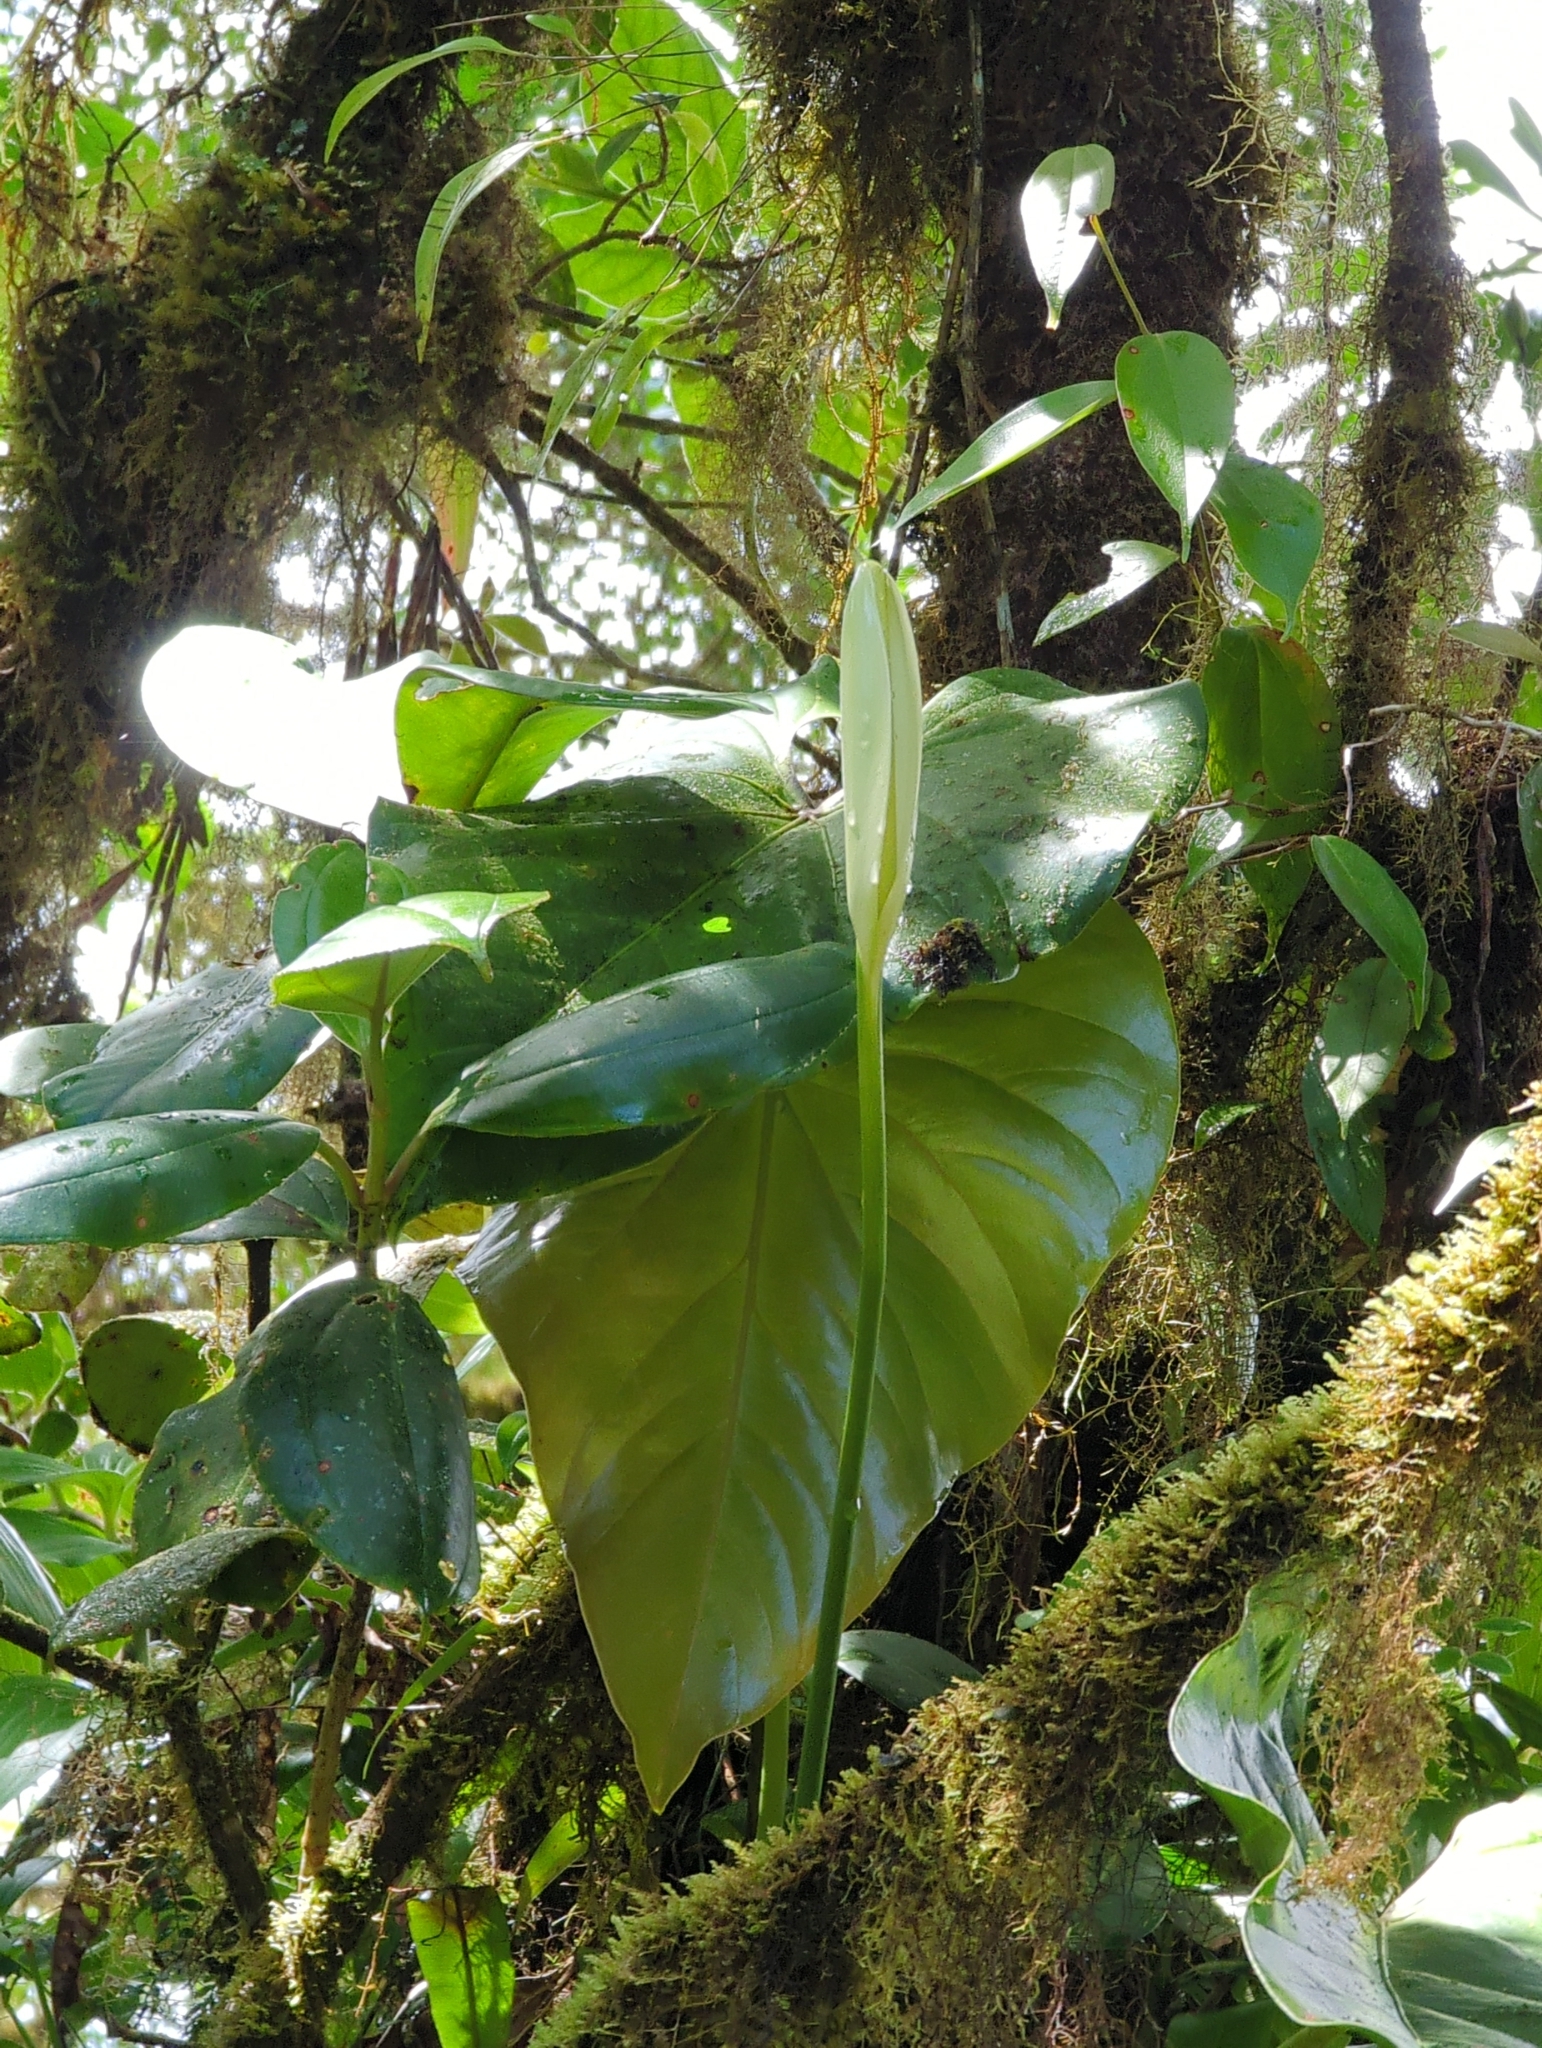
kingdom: Plantae
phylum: Tracheophyta
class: Liliopsida
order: Alismatales
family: Araceae
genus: Anthurium
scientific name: Anthurium monteverdense
